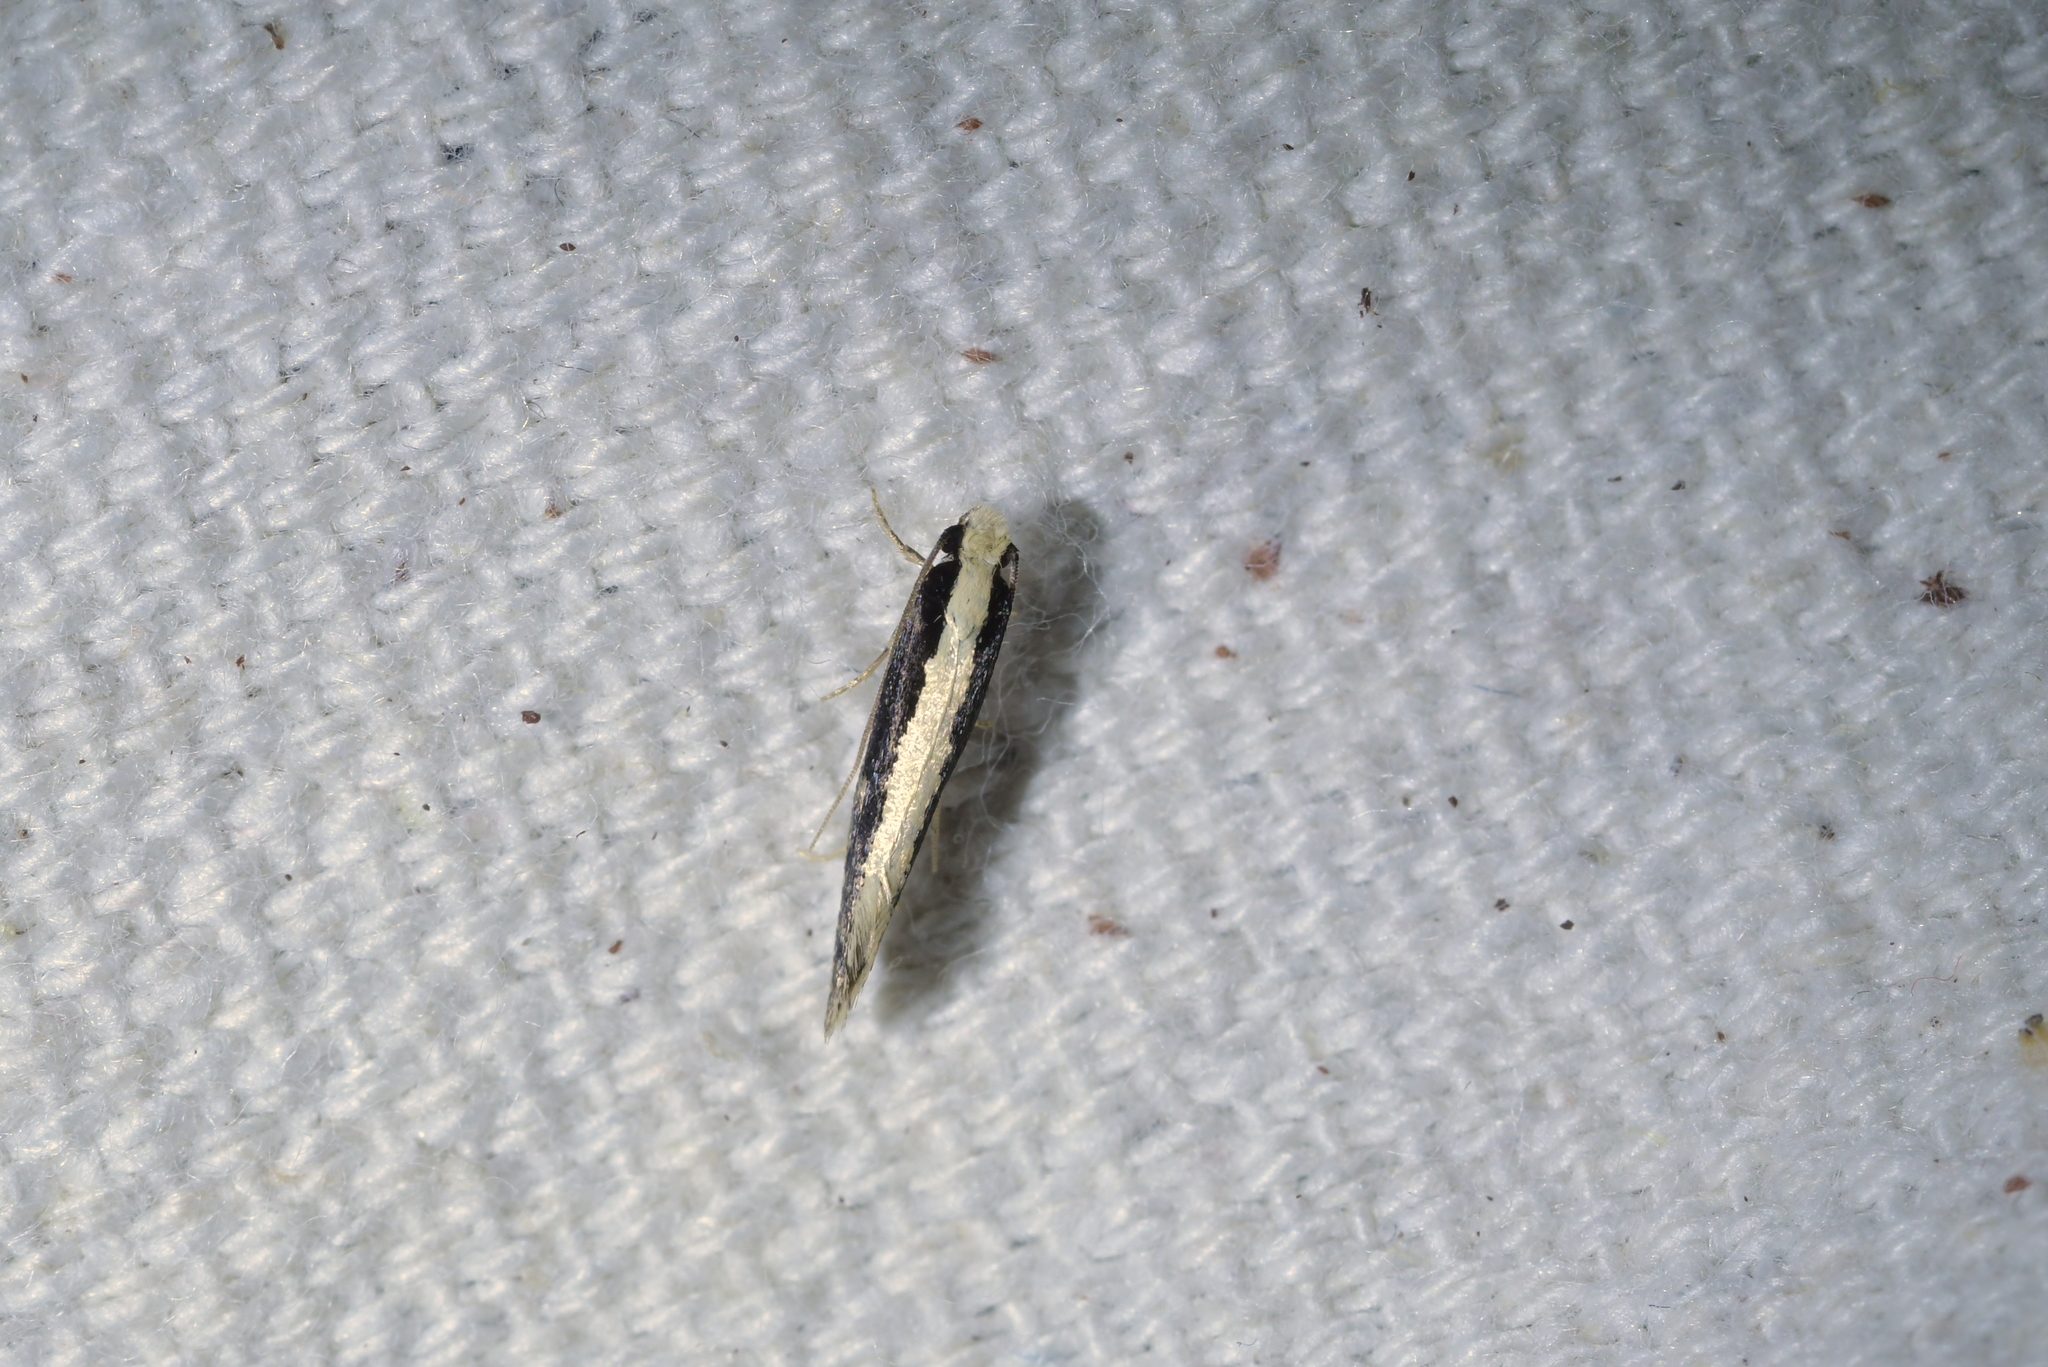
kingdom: Animalia
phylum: Arthropoda
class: Insecta
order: Lepidoptera
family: Tineidae
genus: Monopis
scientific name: Monopis ethelella
